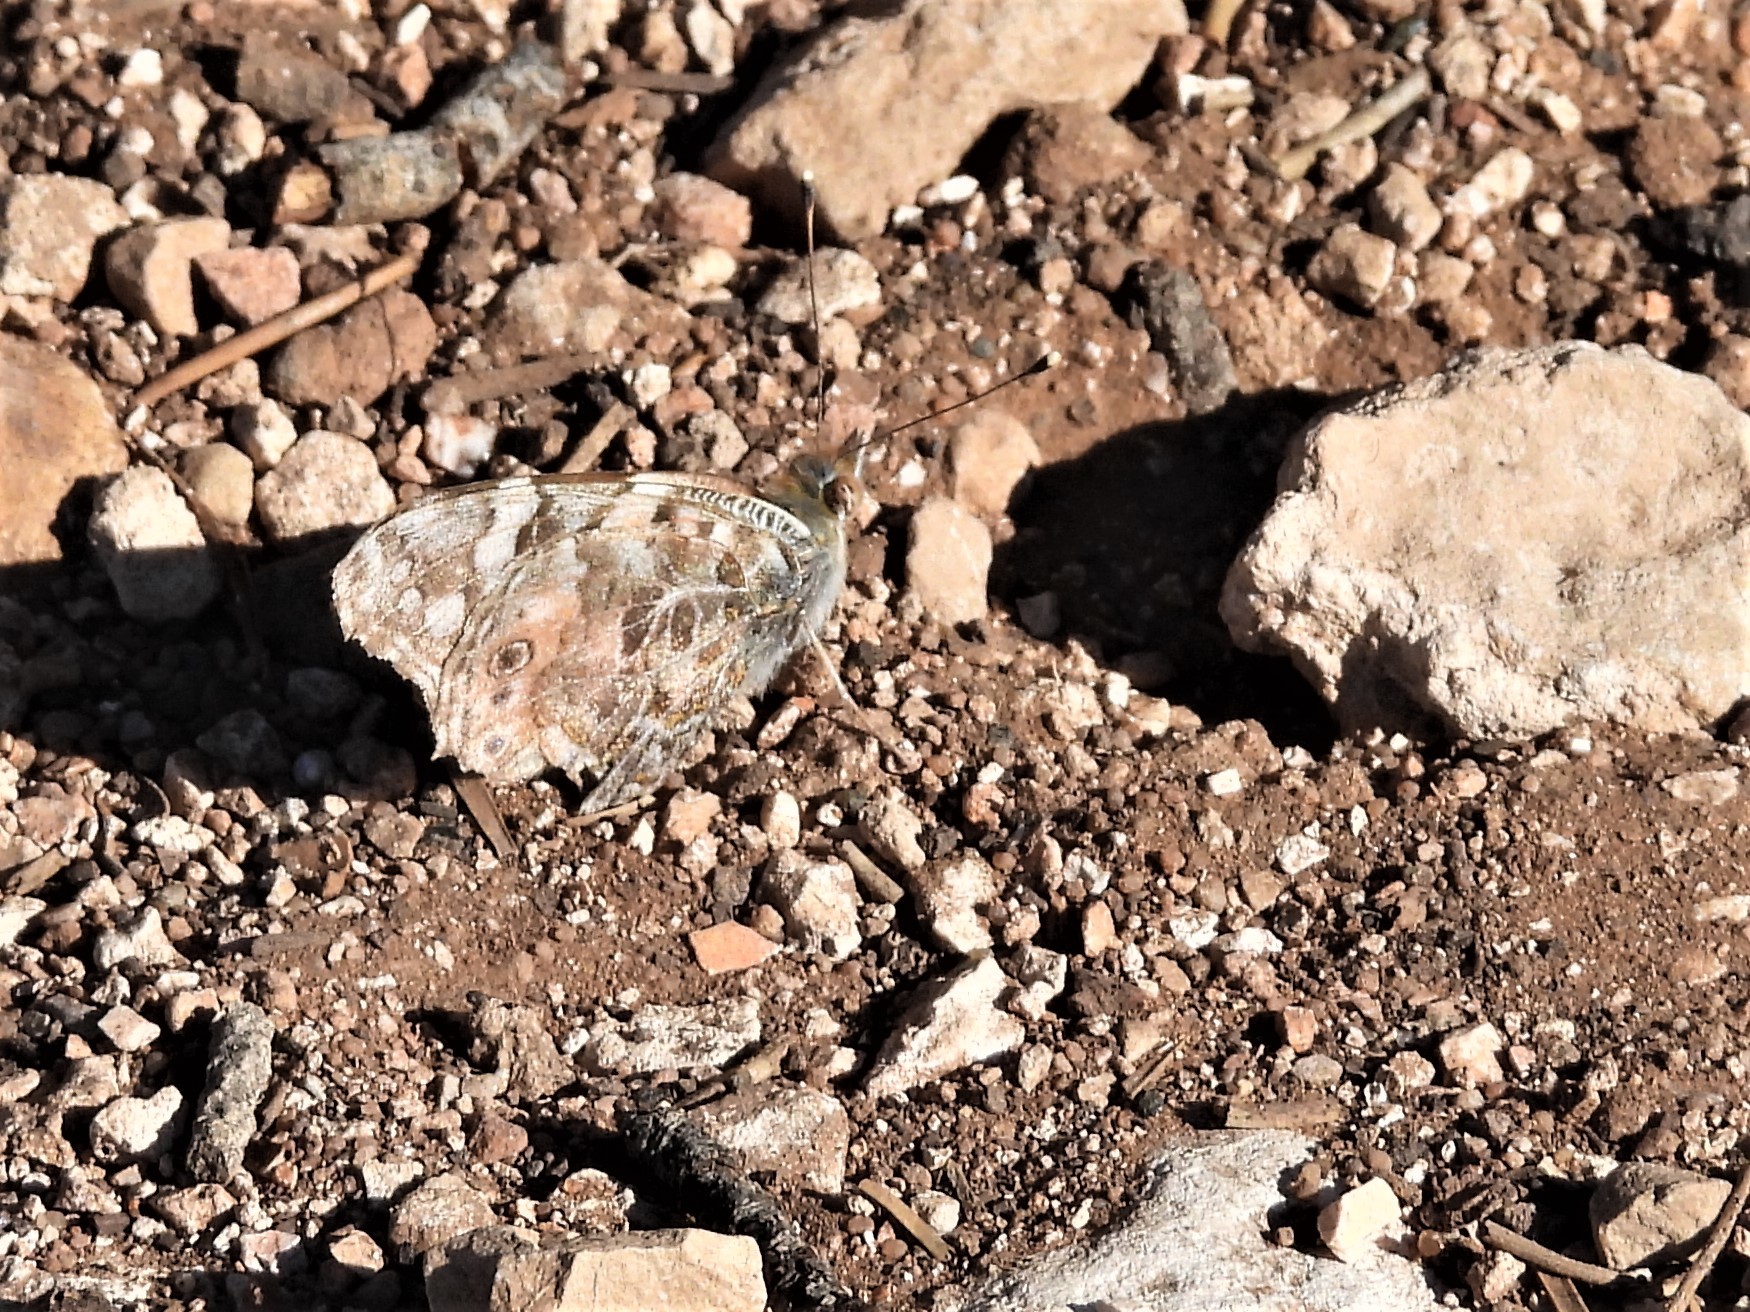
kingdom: Animalia
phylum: Arthropoda
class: Insecta
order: Lepidoptera
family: Nymphalidae
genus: Vanessa
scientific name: Vanessa cardui
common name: Painted lady
